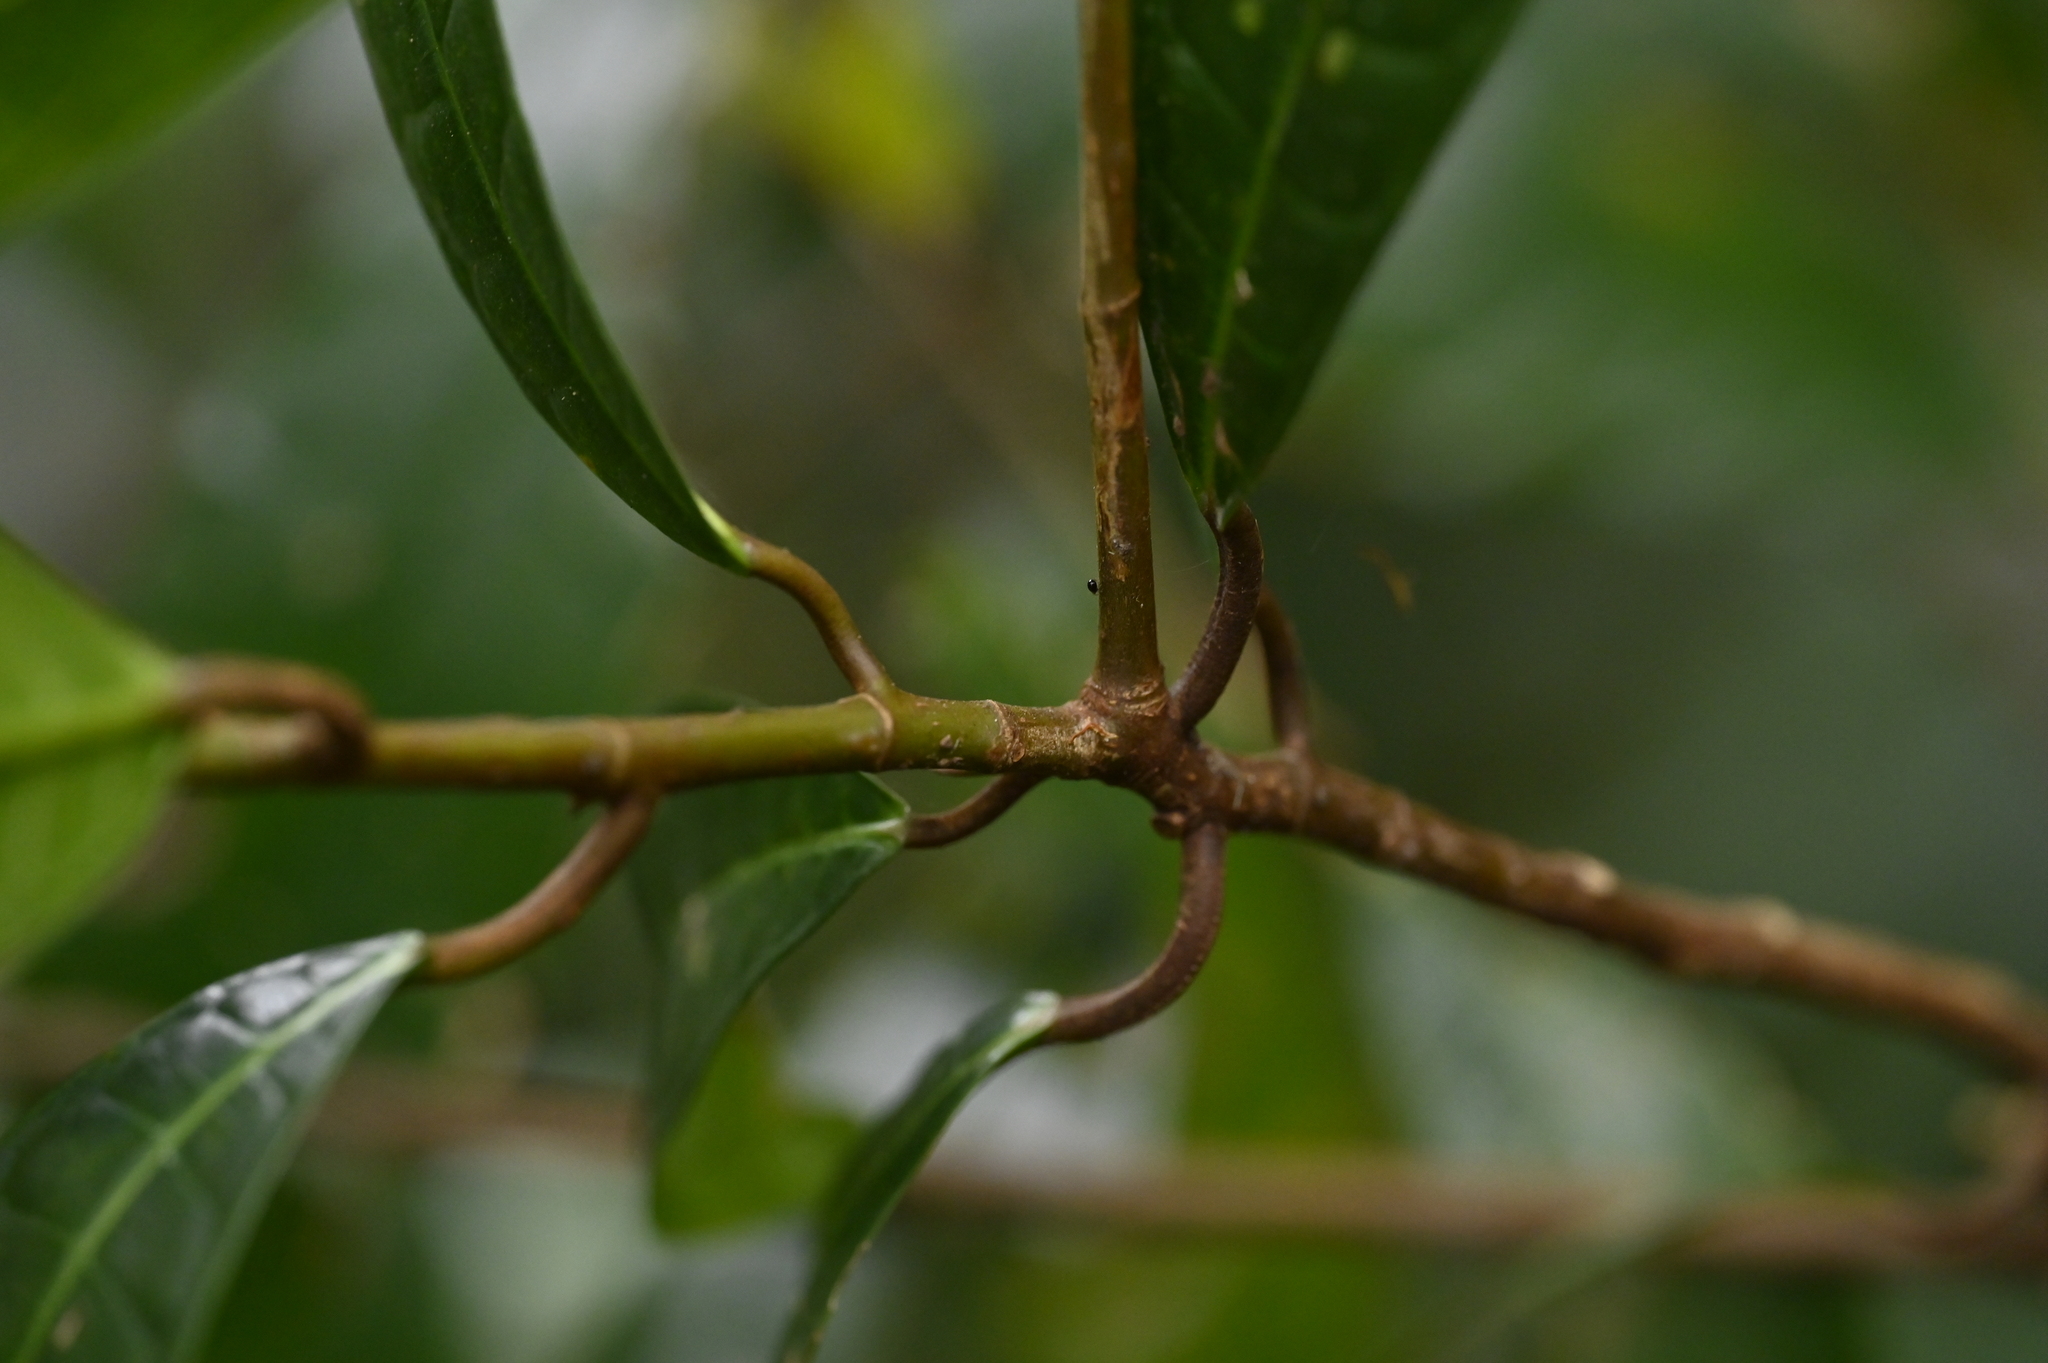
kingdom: Plantae
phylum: Tracheophyta
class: Magnoliopsida
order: Rosales
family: Moraceae
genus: Ficus
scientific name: Ficus nervosa
